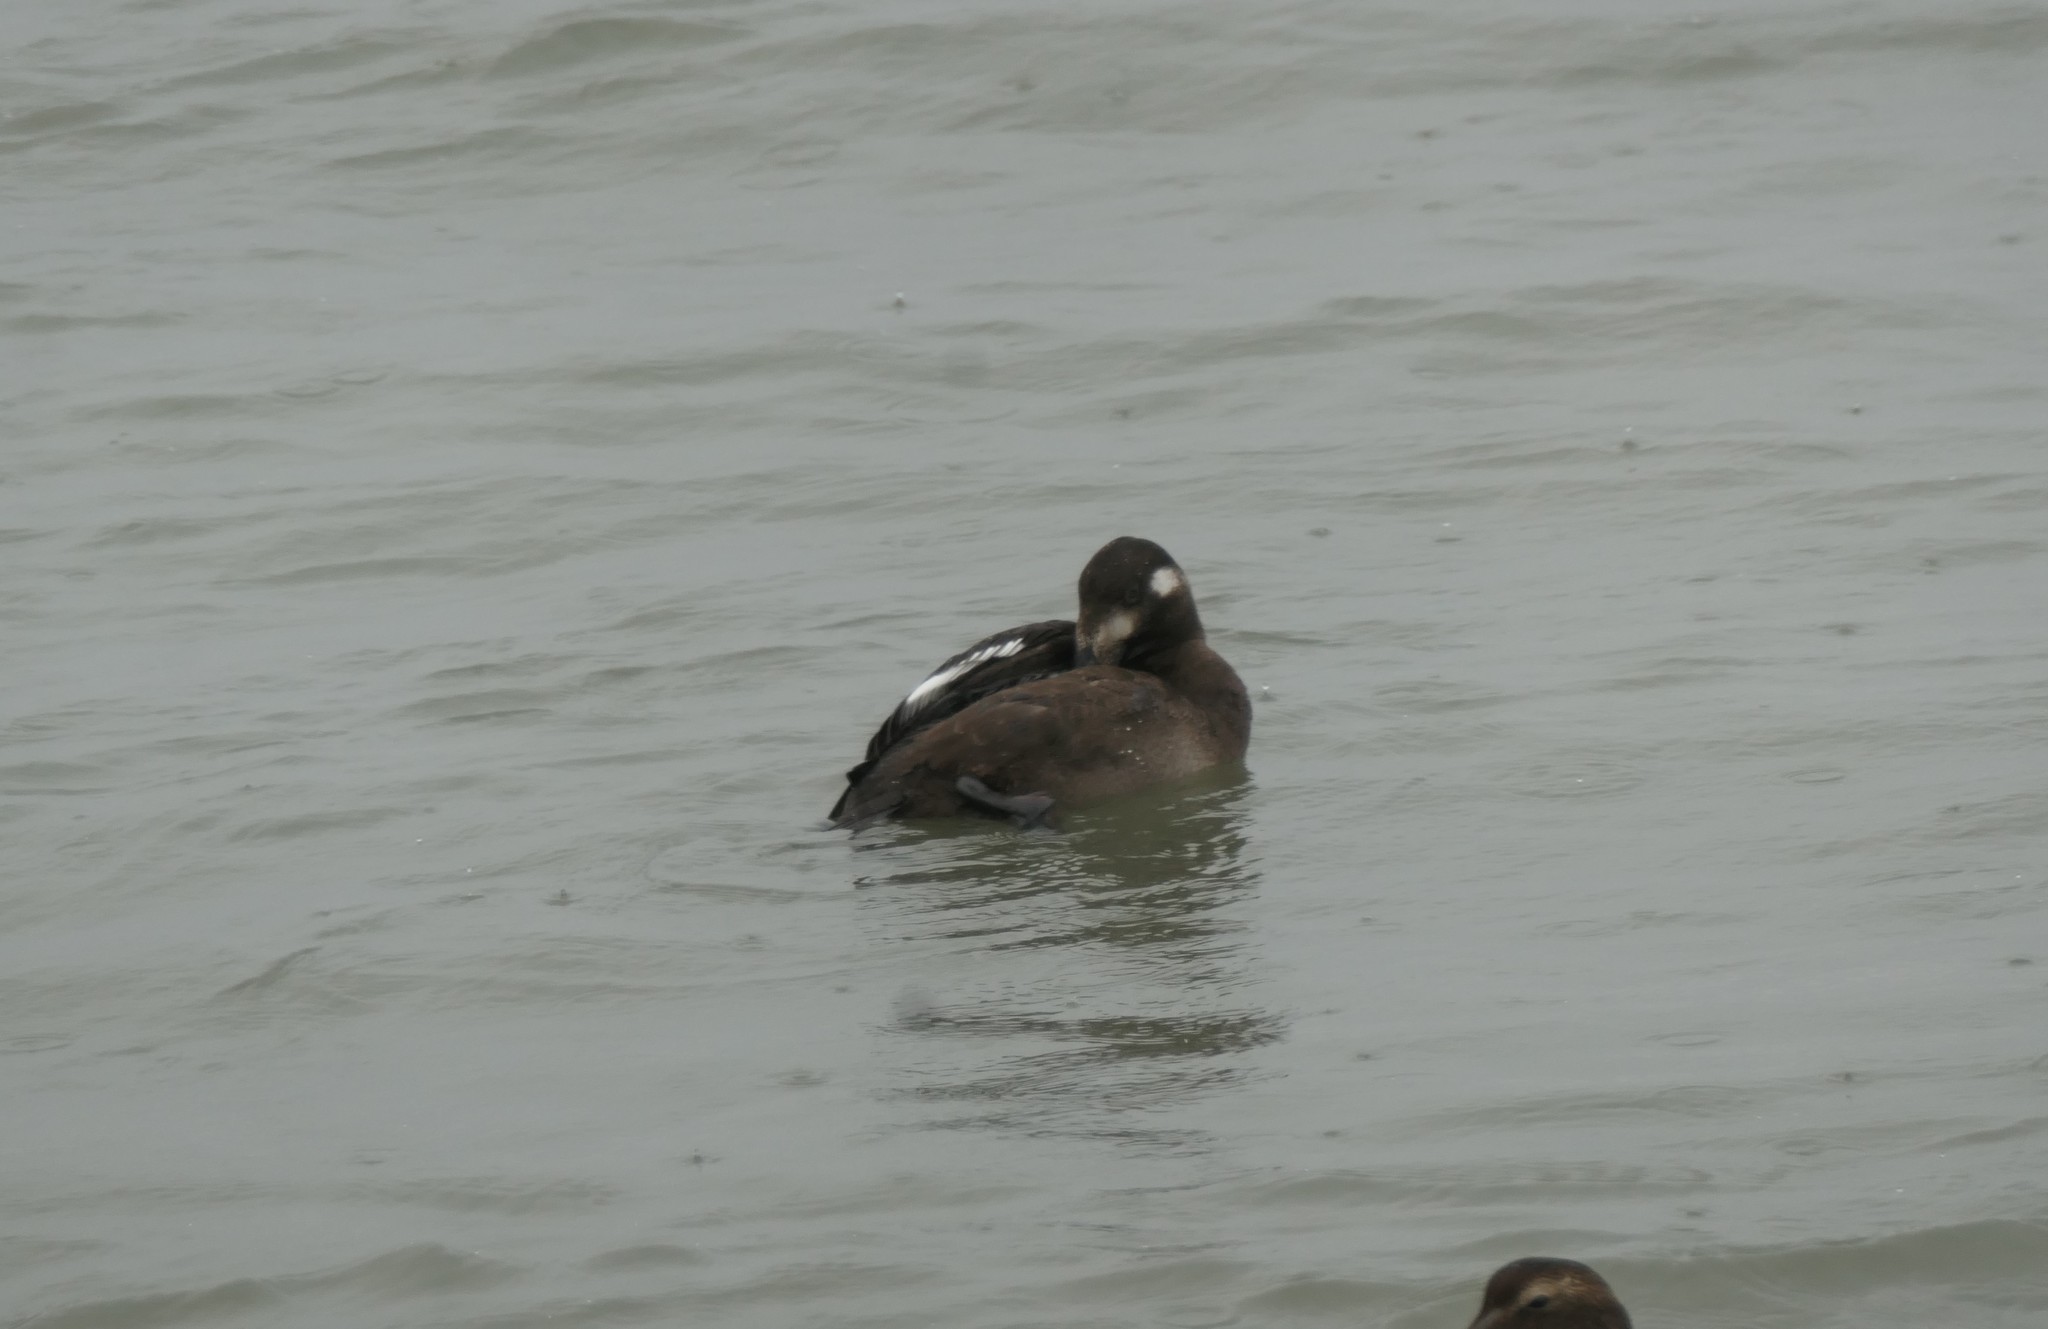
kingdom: Animalia
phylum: Chordata
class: Aves
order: Anseriformes
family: Anatidae
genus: Melanitta
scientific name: Melanitta deglandi
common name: White-winged scoter
